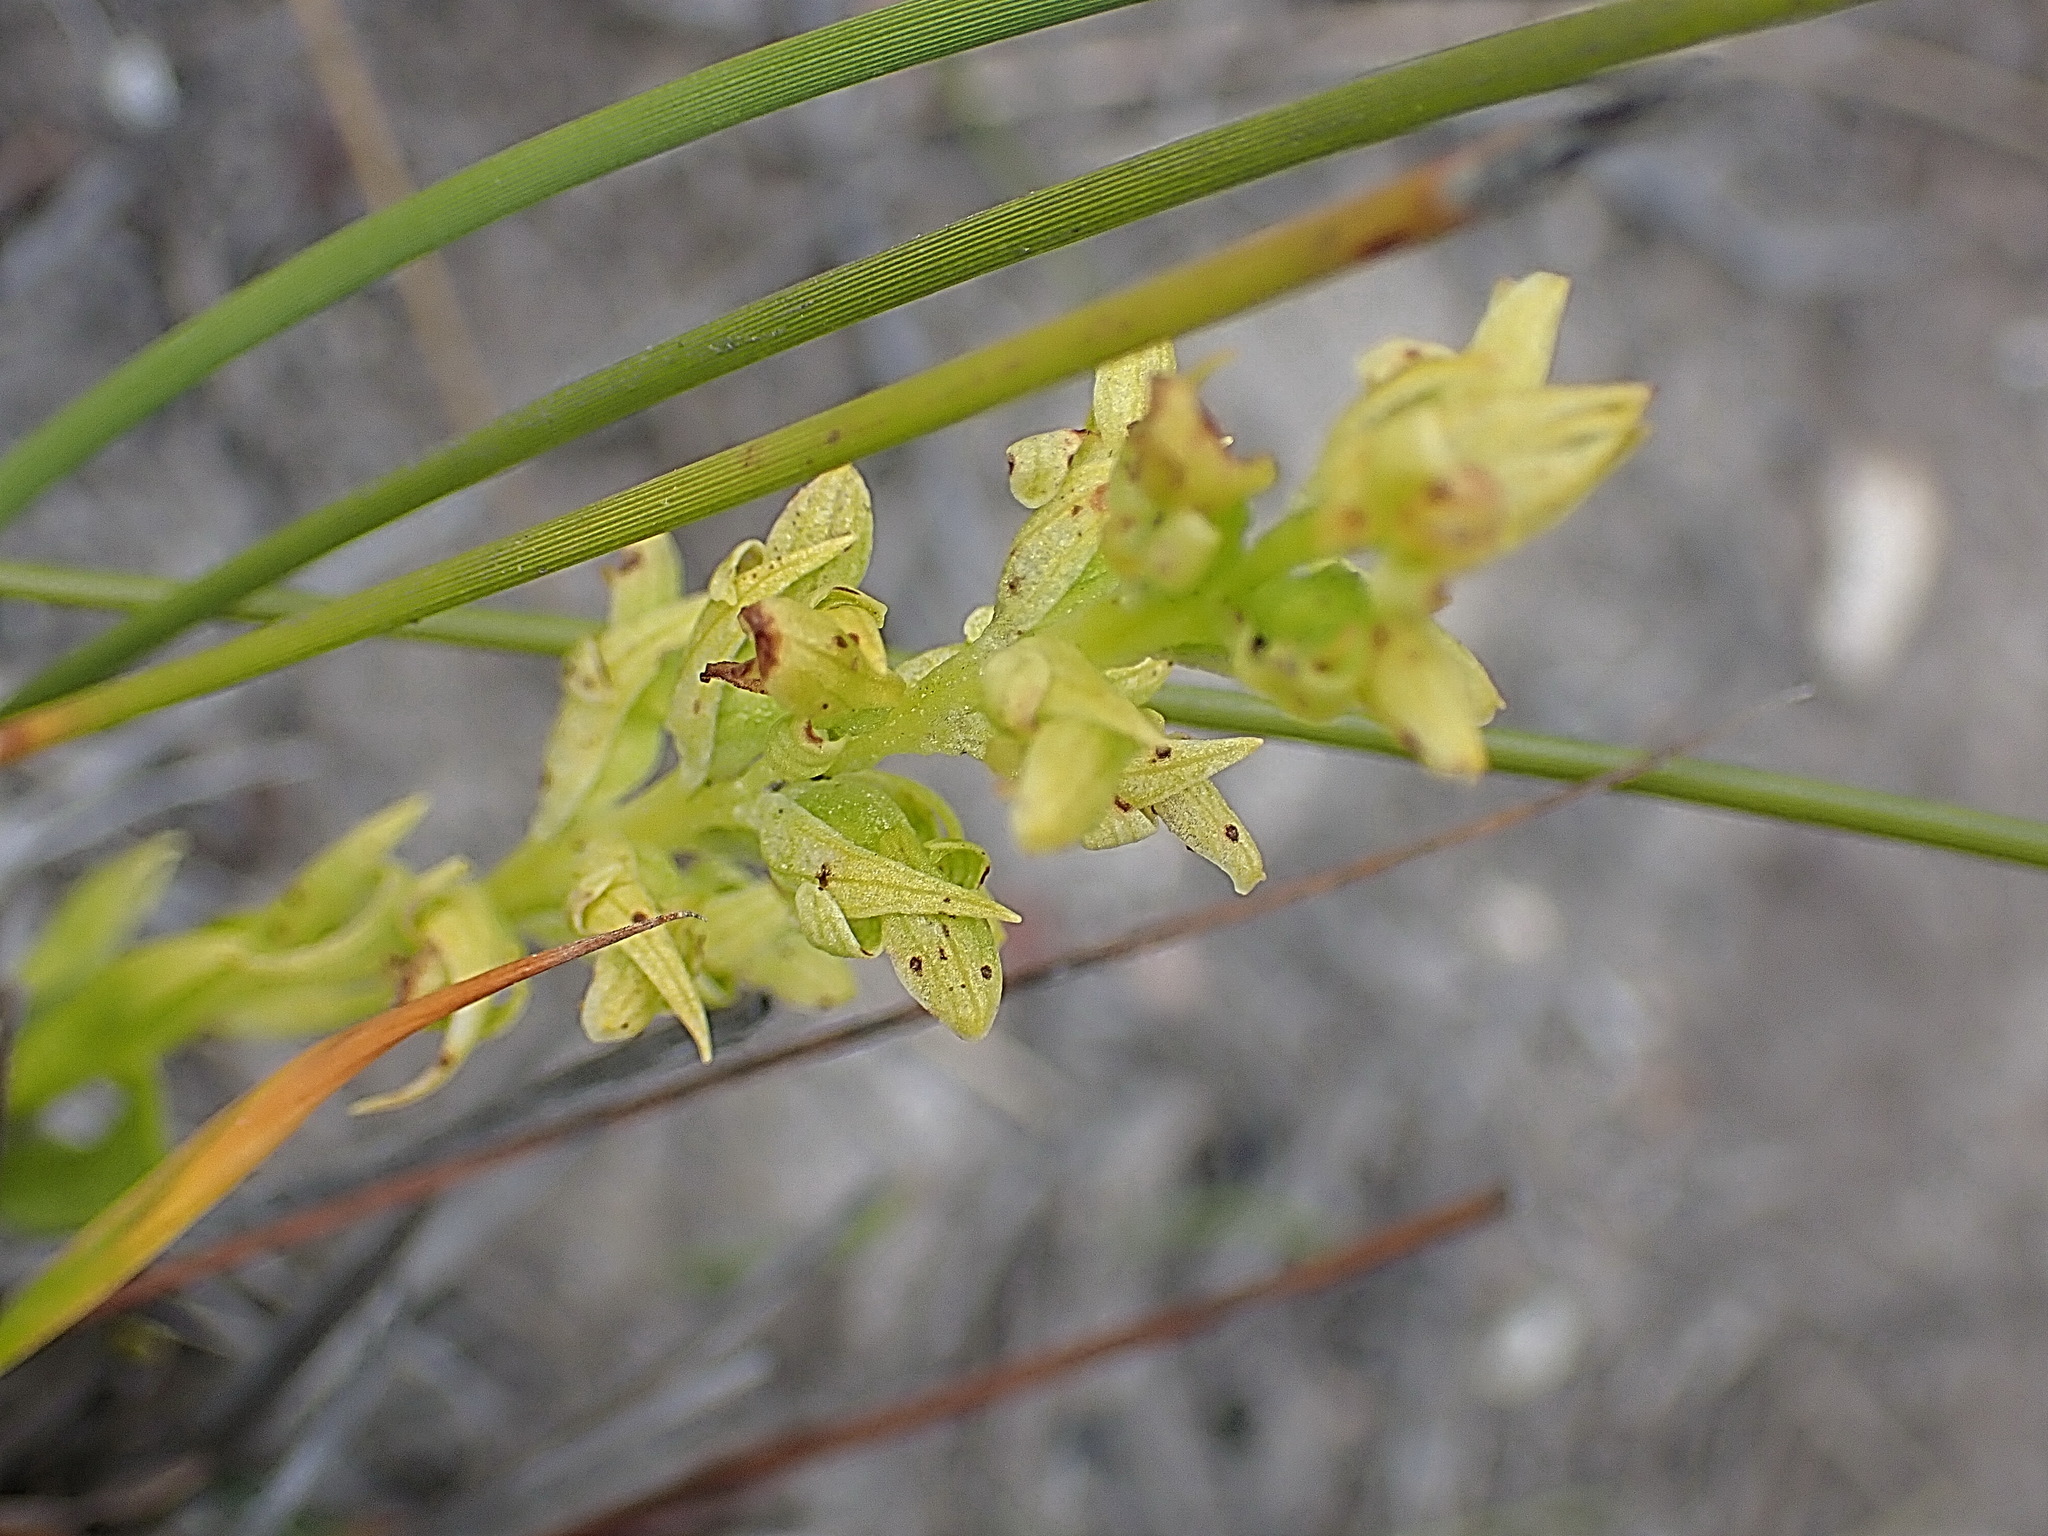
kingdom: Plantae
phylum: Tracheophyta
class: Liliopsida
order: Asparagales
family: Orchidaceae
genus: Disa
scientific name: Disa cylindrica
